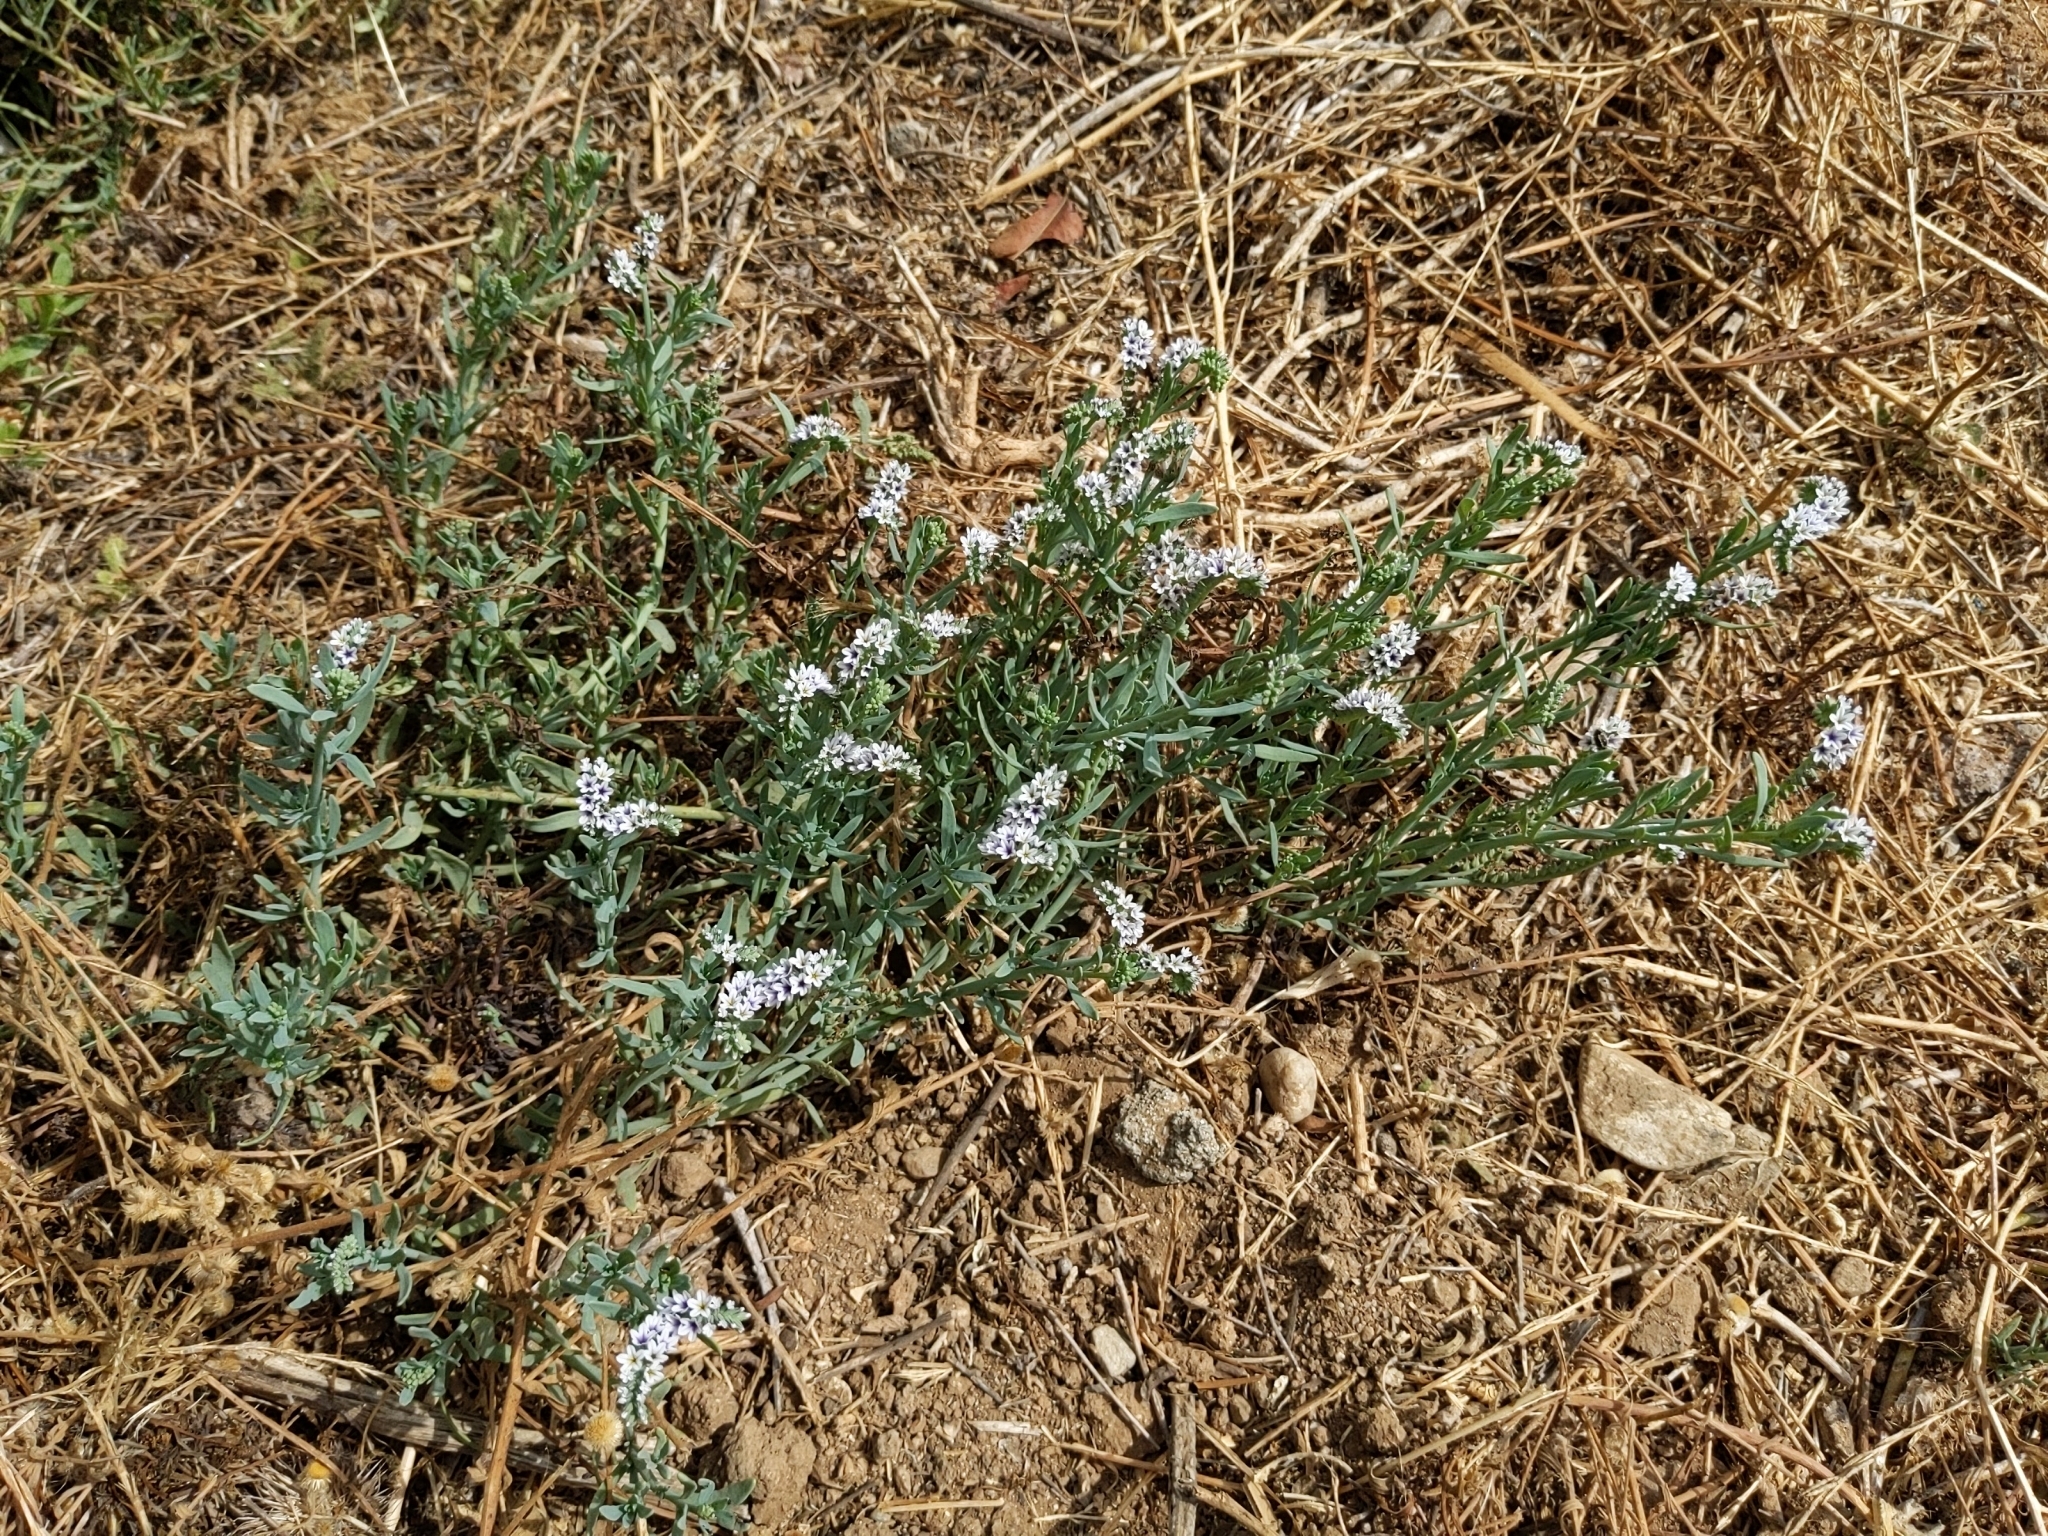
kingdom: Plantae
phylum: Tracheophyta
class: Magnoliopsida
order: Boraginales
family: Heliotropiaceae
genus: Heliotropium
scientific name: Heliotropium curassavicum
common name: Seaside heliotrope
